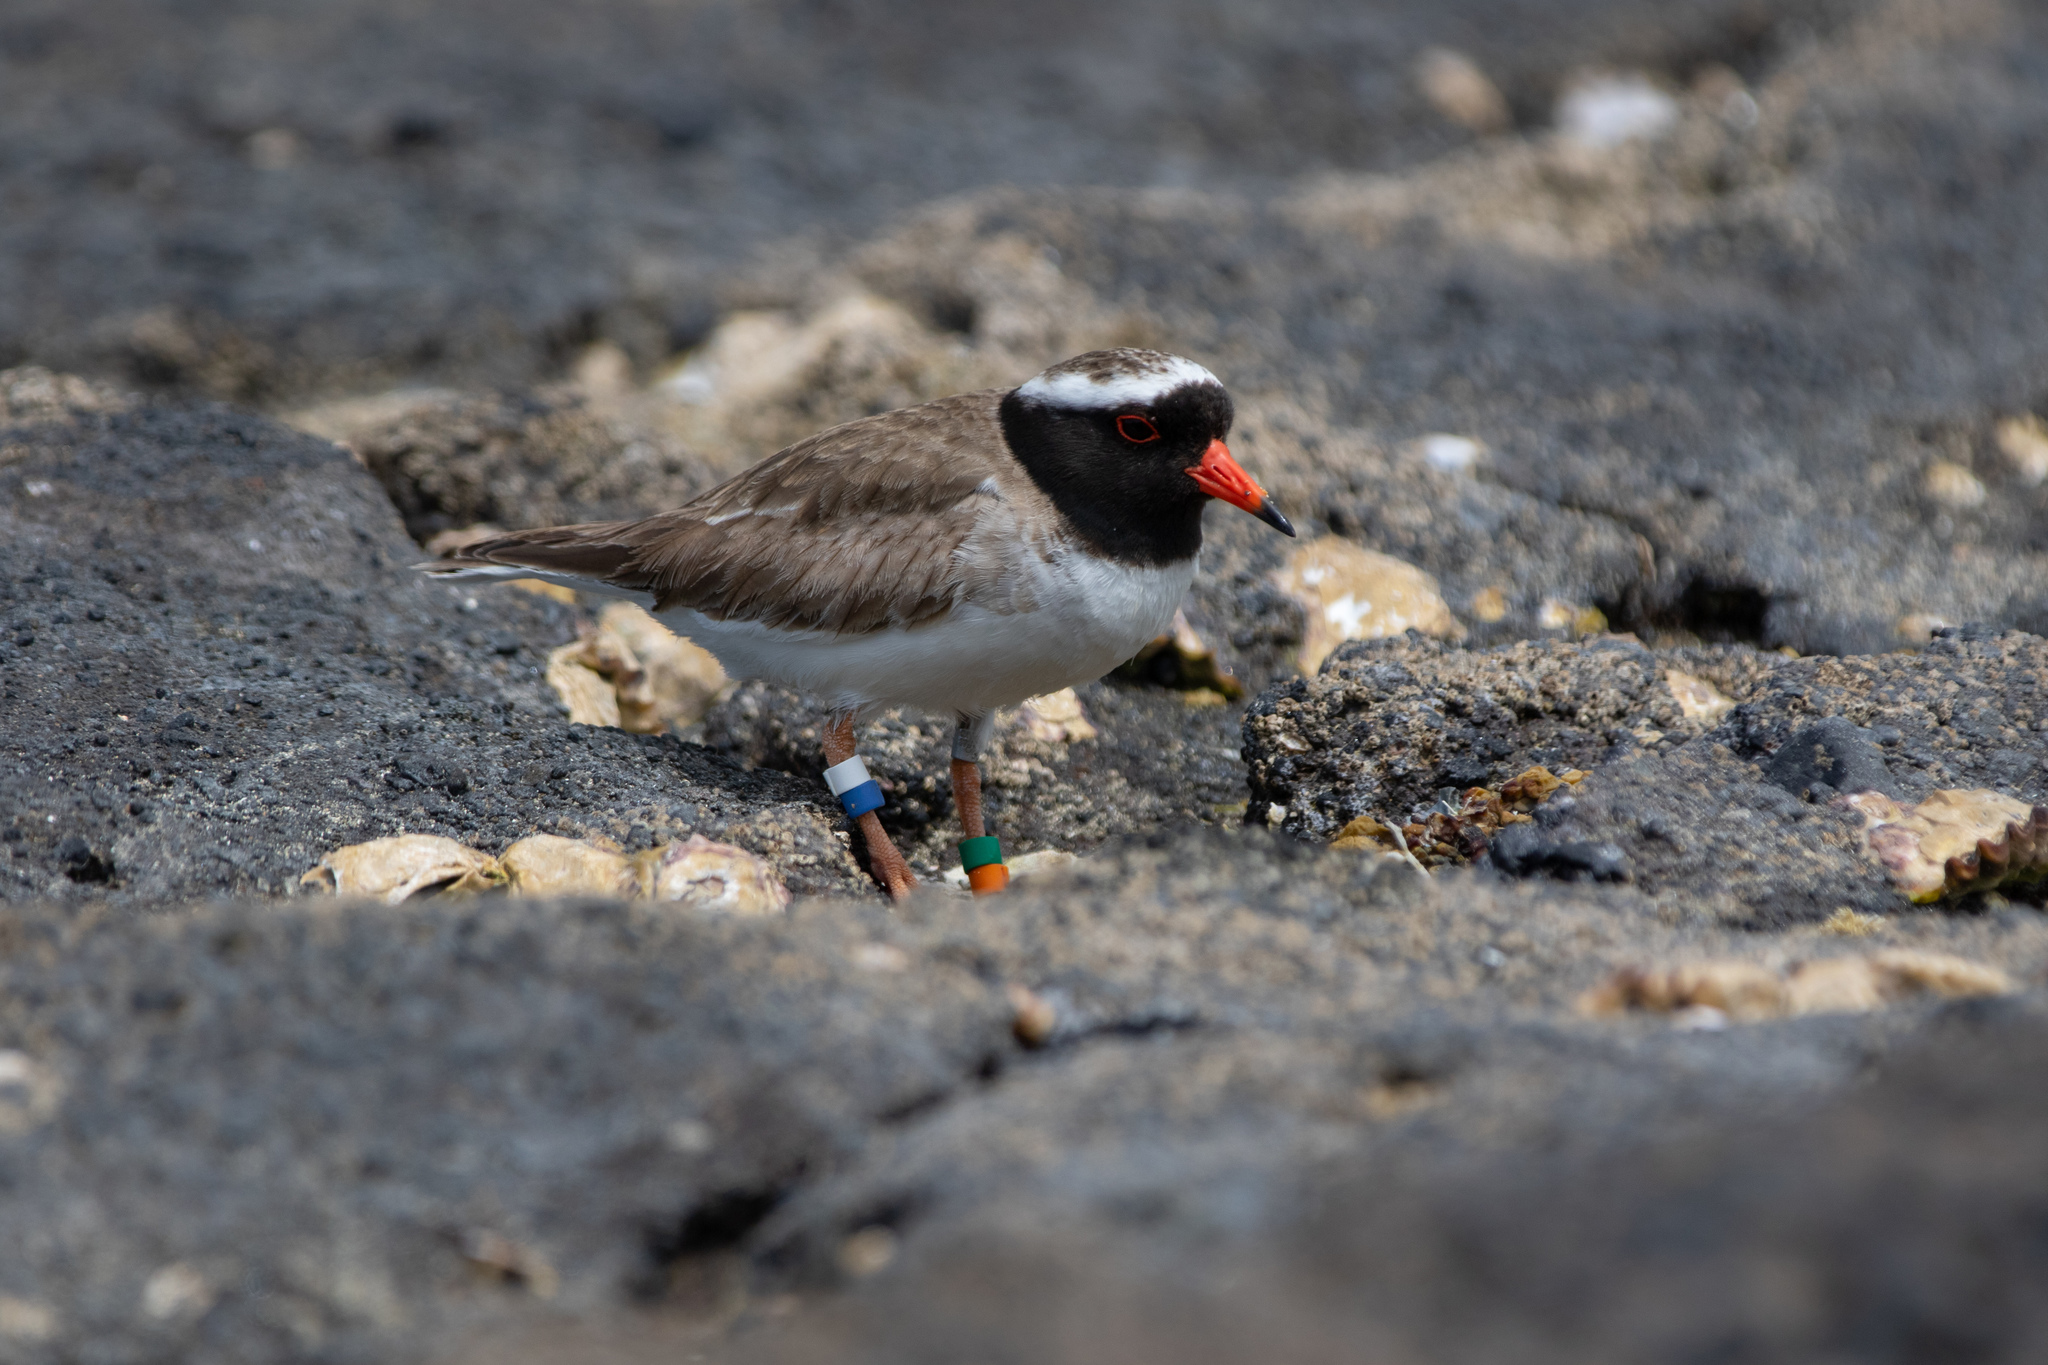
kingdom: Animalia
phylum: Chordata
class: Aves
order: Charadriiformes
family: Charadriidae
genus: Thinornis
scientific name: Thinornis novaeseelandiae
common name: Shore dotterel
